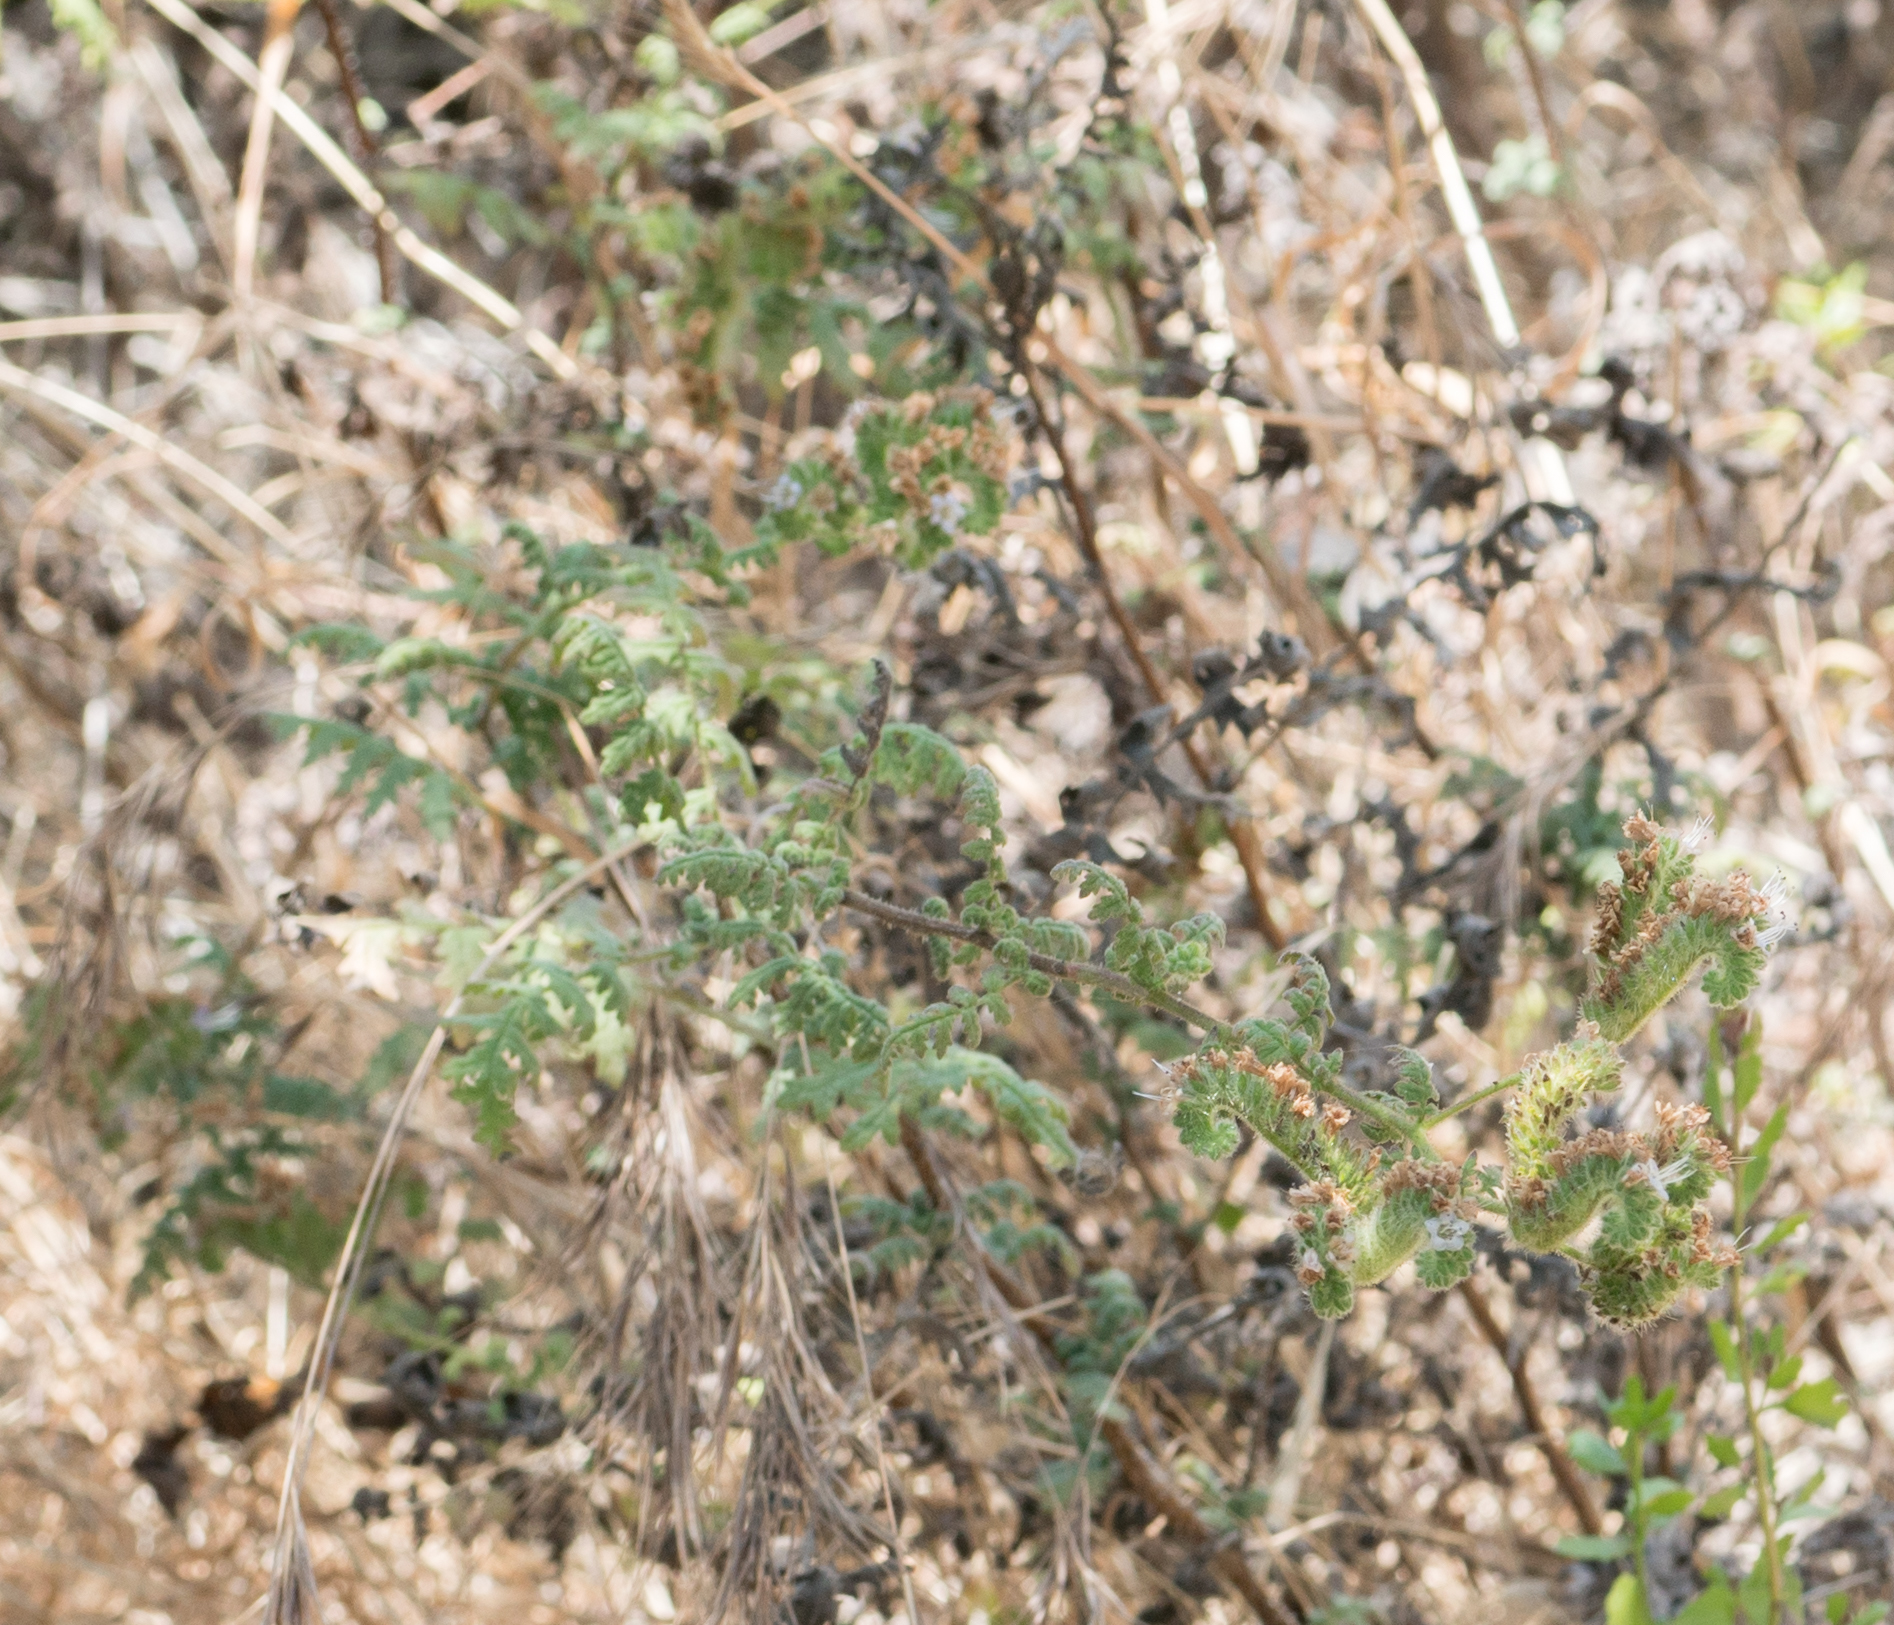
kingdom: Plantae
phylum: Tracheophyta
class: Magnoliopsida
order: Boraginales
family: Hydrophyllaceae
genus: Phacelia
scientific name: Phacelia ramosissima
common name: Branching phacelia
